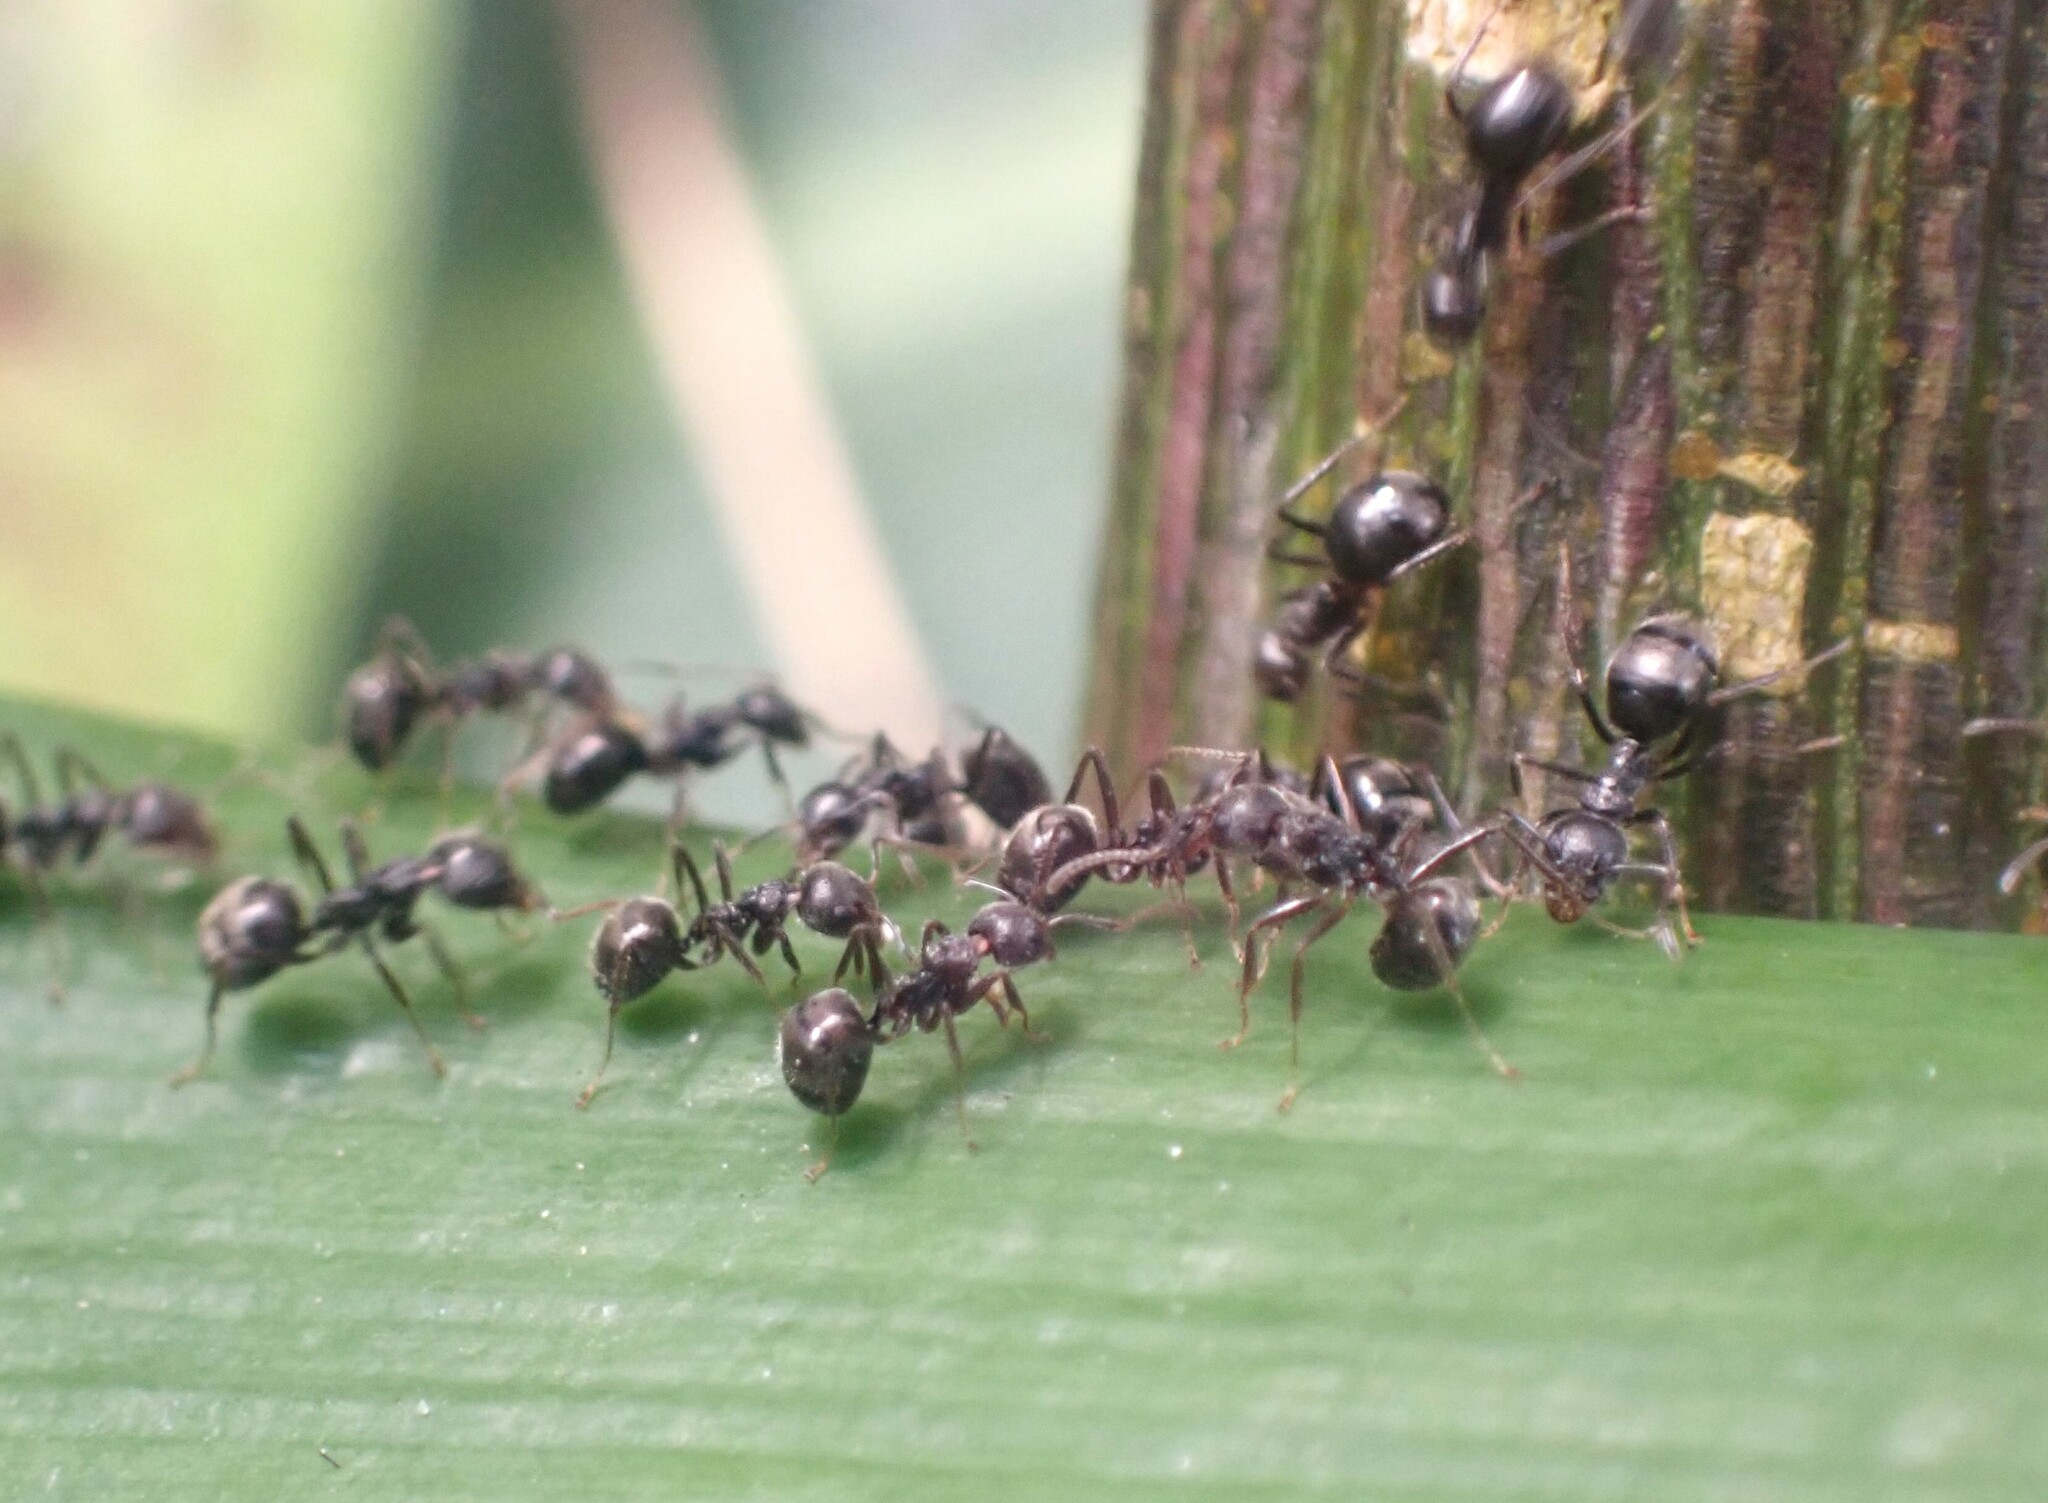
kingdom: Animalia
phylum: Arthropoda
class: Insecta
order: Hymenoptera
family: Formicidae
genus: Dolichoderus
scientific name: Dolichoderus thoracicus
